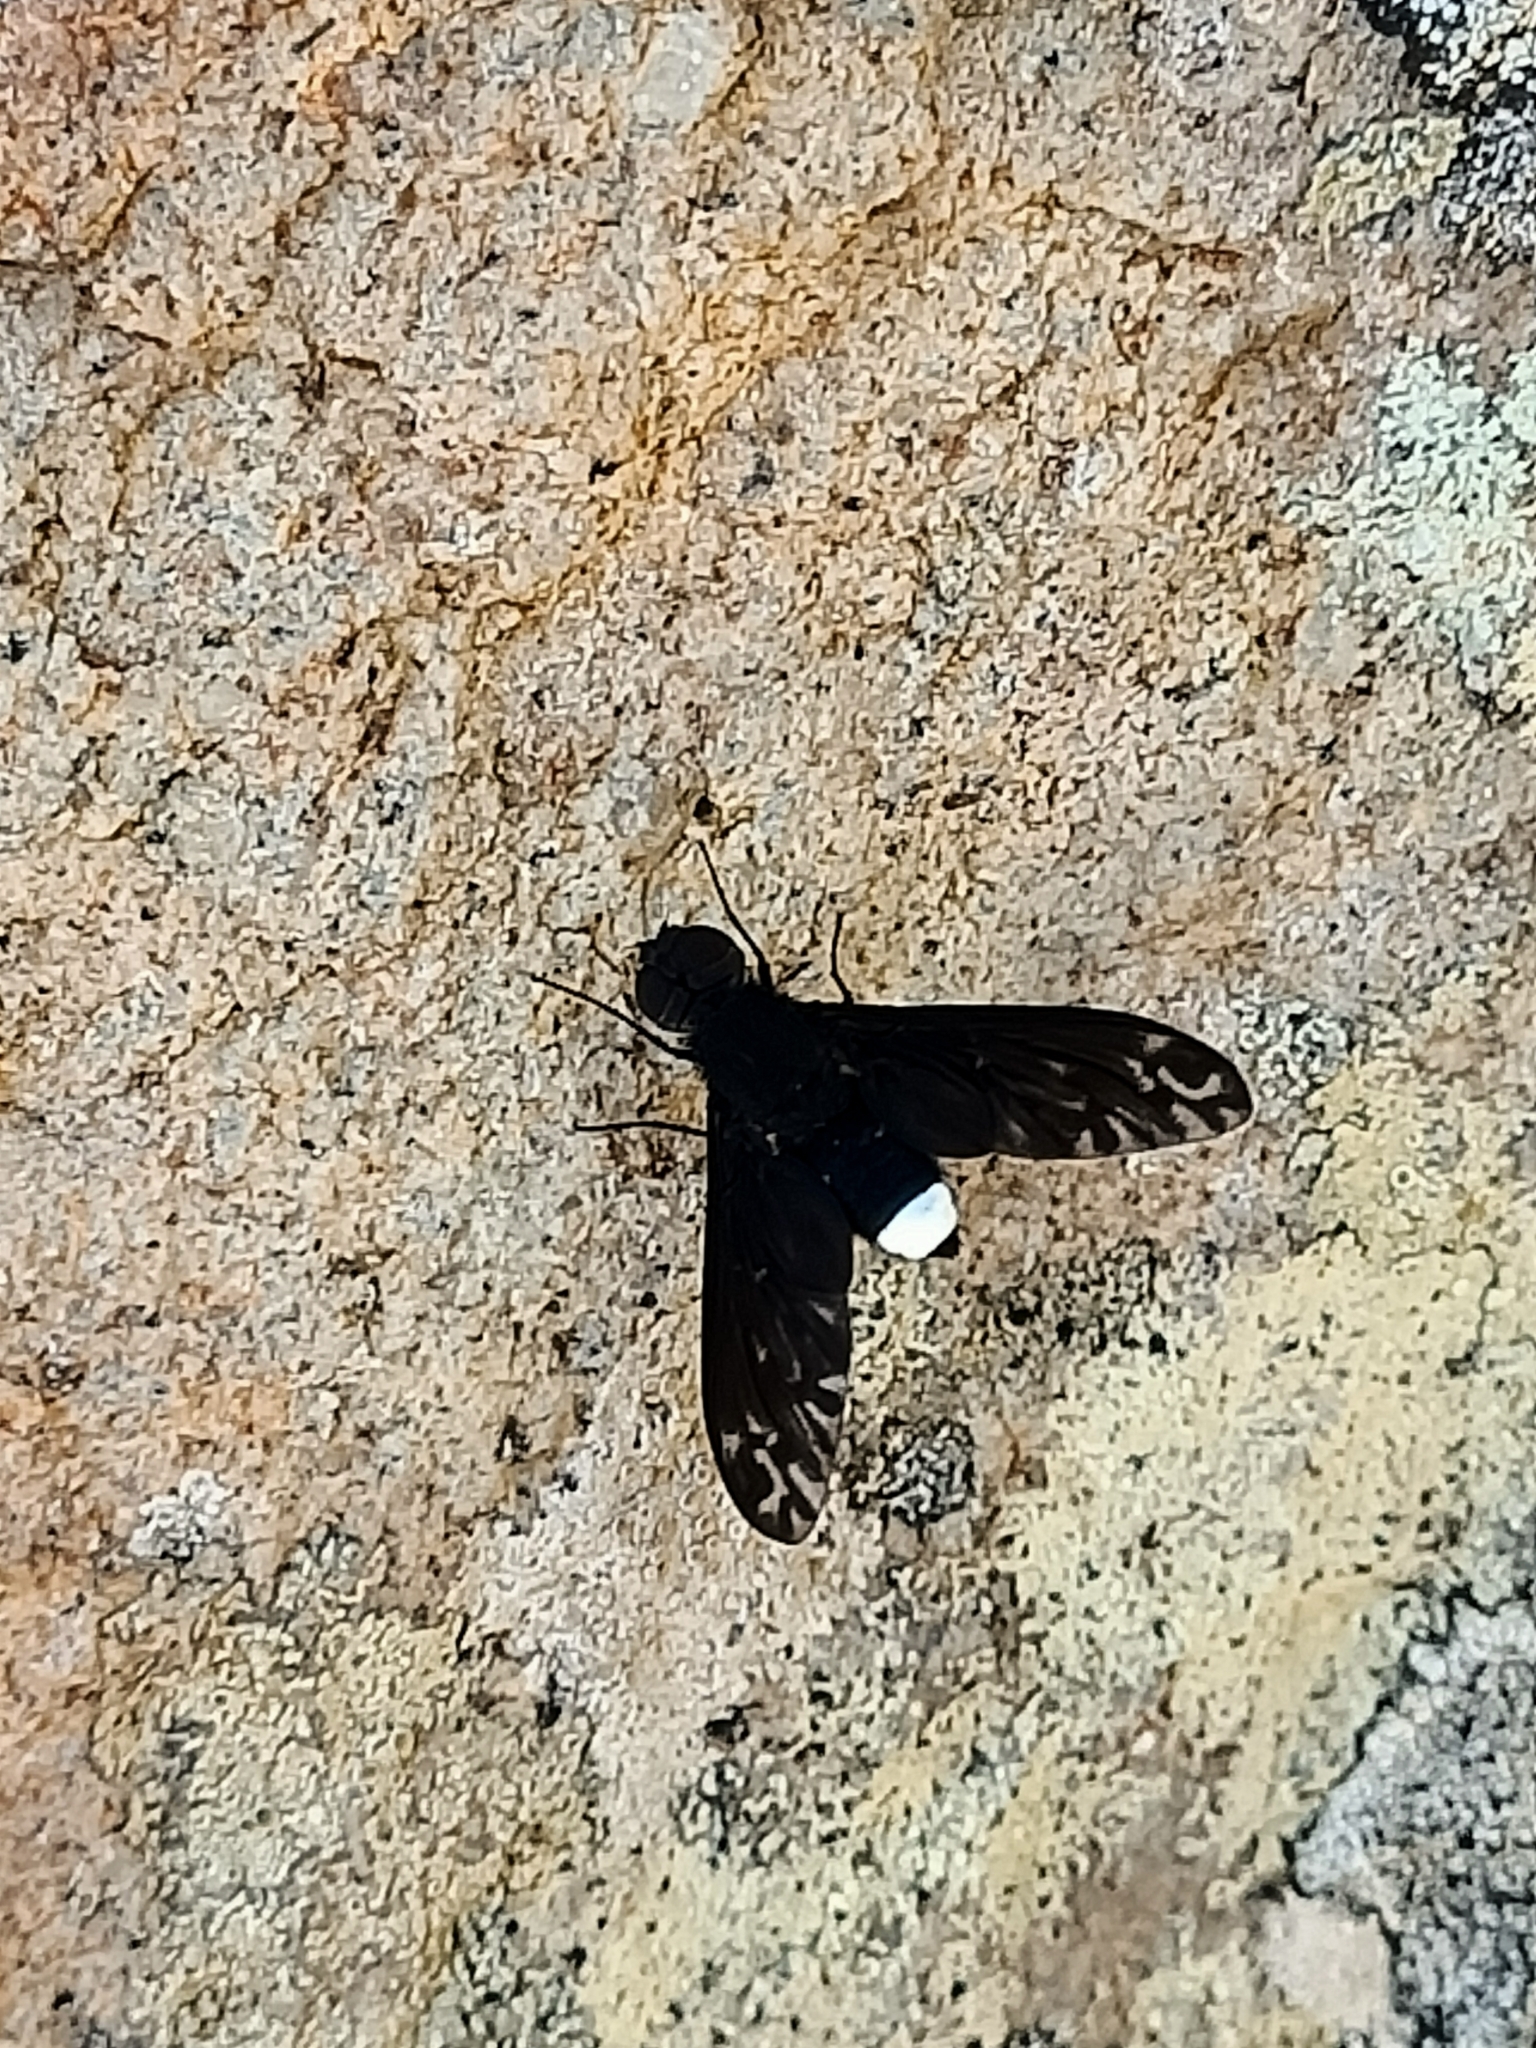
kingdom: Animalia
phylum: Arthropoda
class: Insecta
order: Diptera
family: Bombyliidae
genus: Anthrax
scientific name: Anthrax maculata
